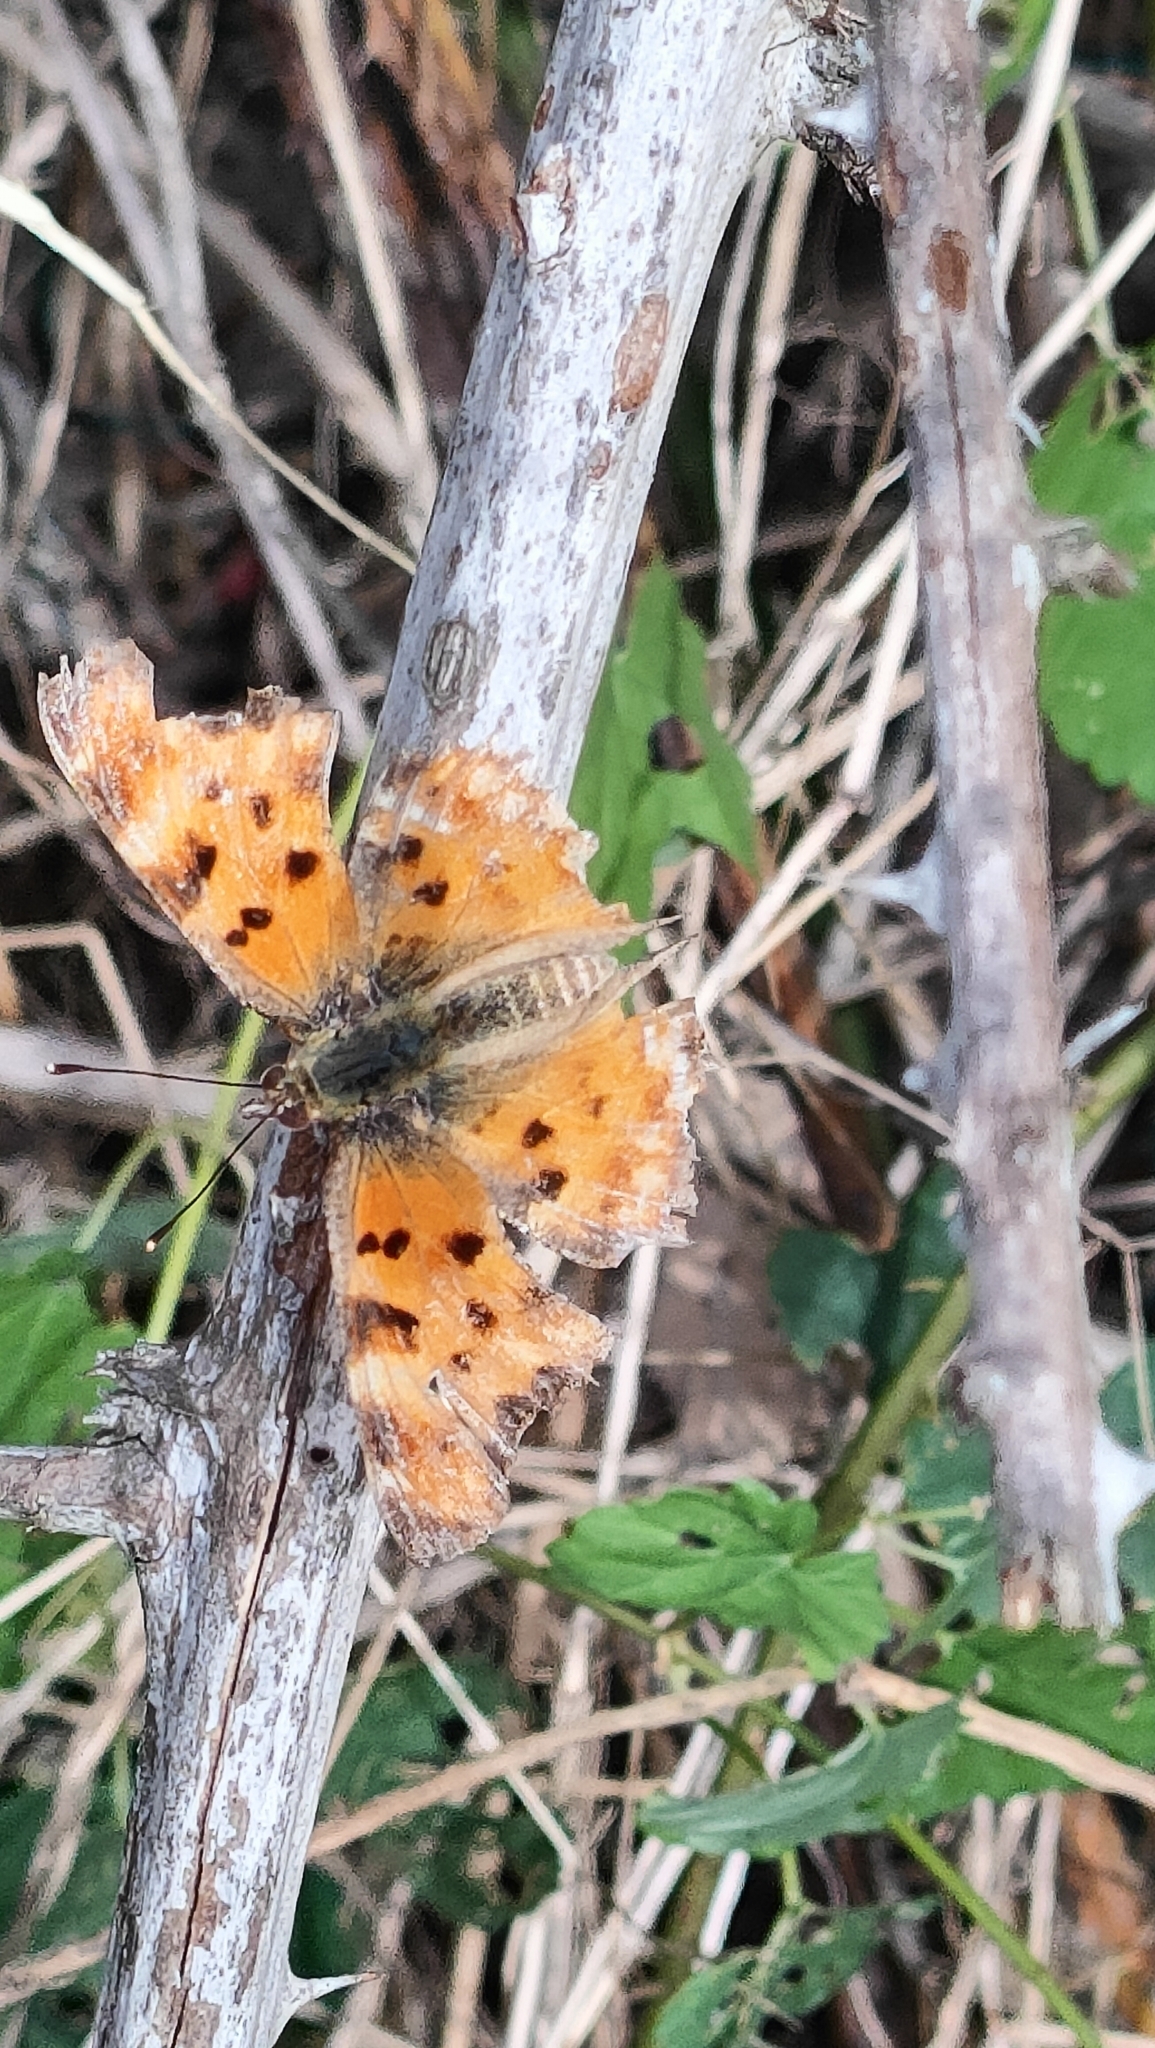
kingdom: Animalia
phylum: Arthropoda
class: Insecta
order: Lepidoptera
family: Nymphalidae
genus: Polygonia
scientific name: Polygonia c-album
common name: Comma
